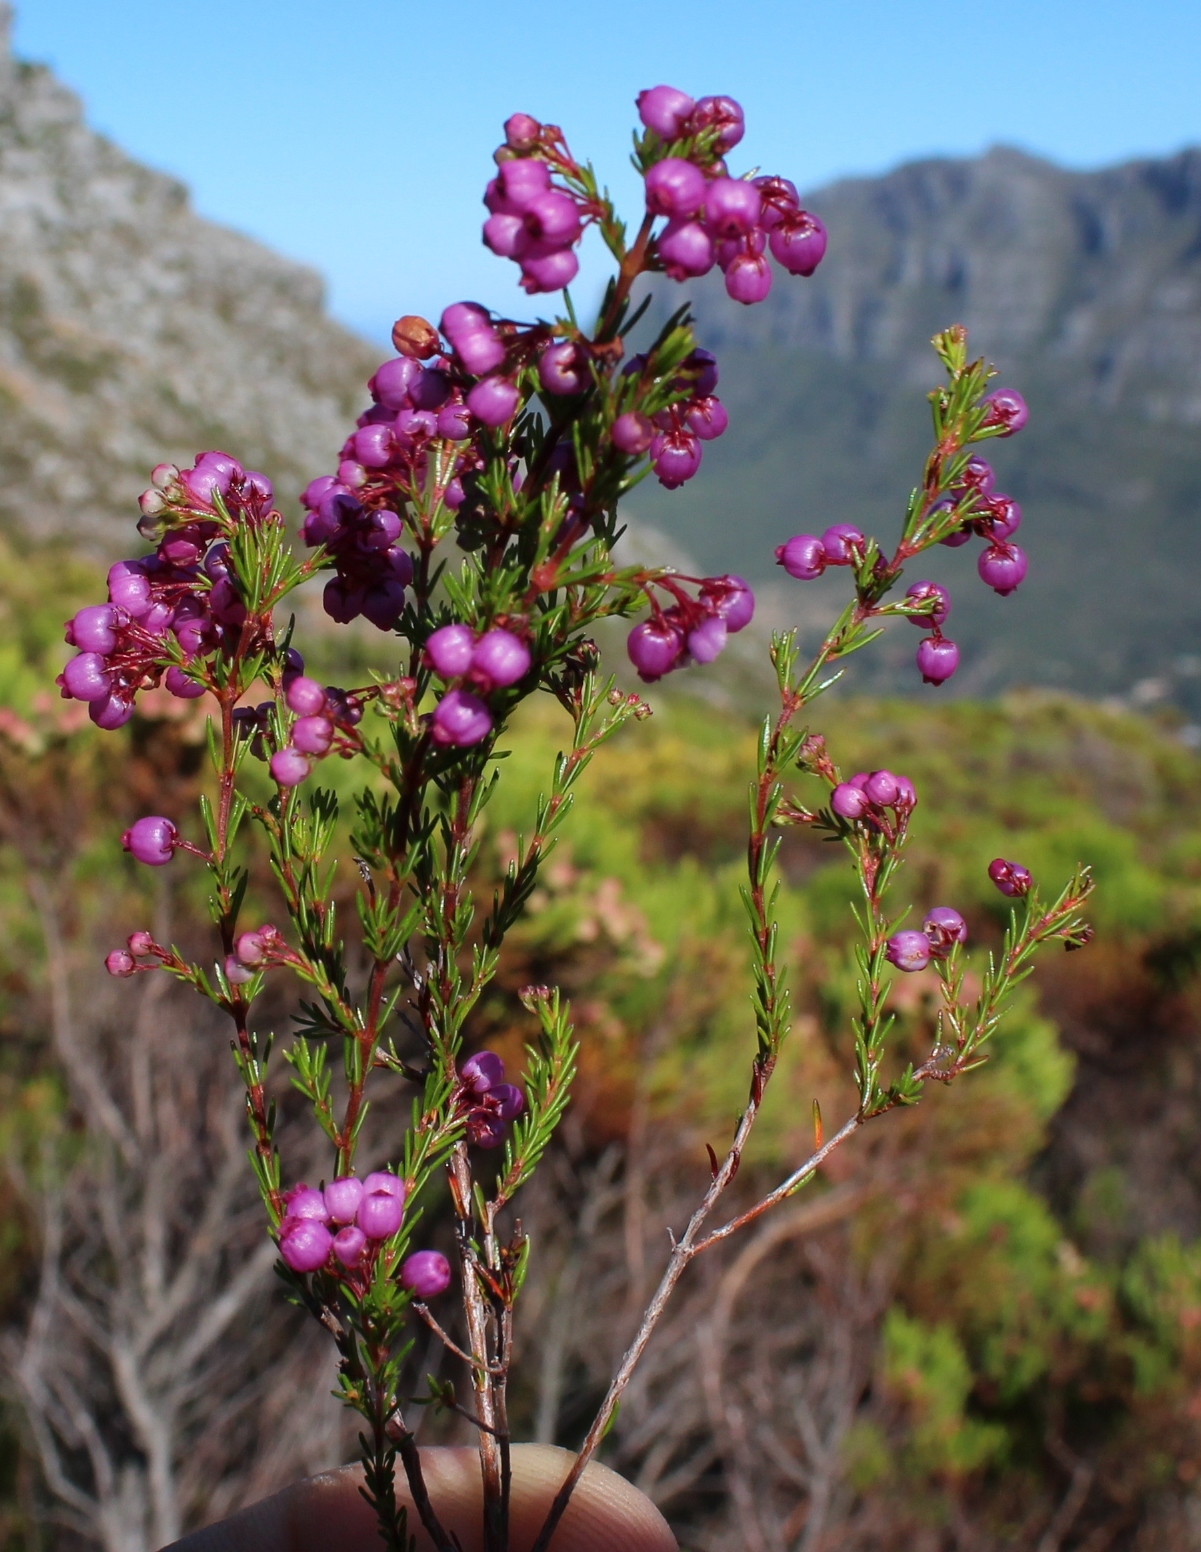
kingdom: Plantae
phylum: Tracheophyta
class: Magnoliopsida
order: Ericales
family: Ericaceae
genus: Erica
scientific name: Erica multumbellifera
